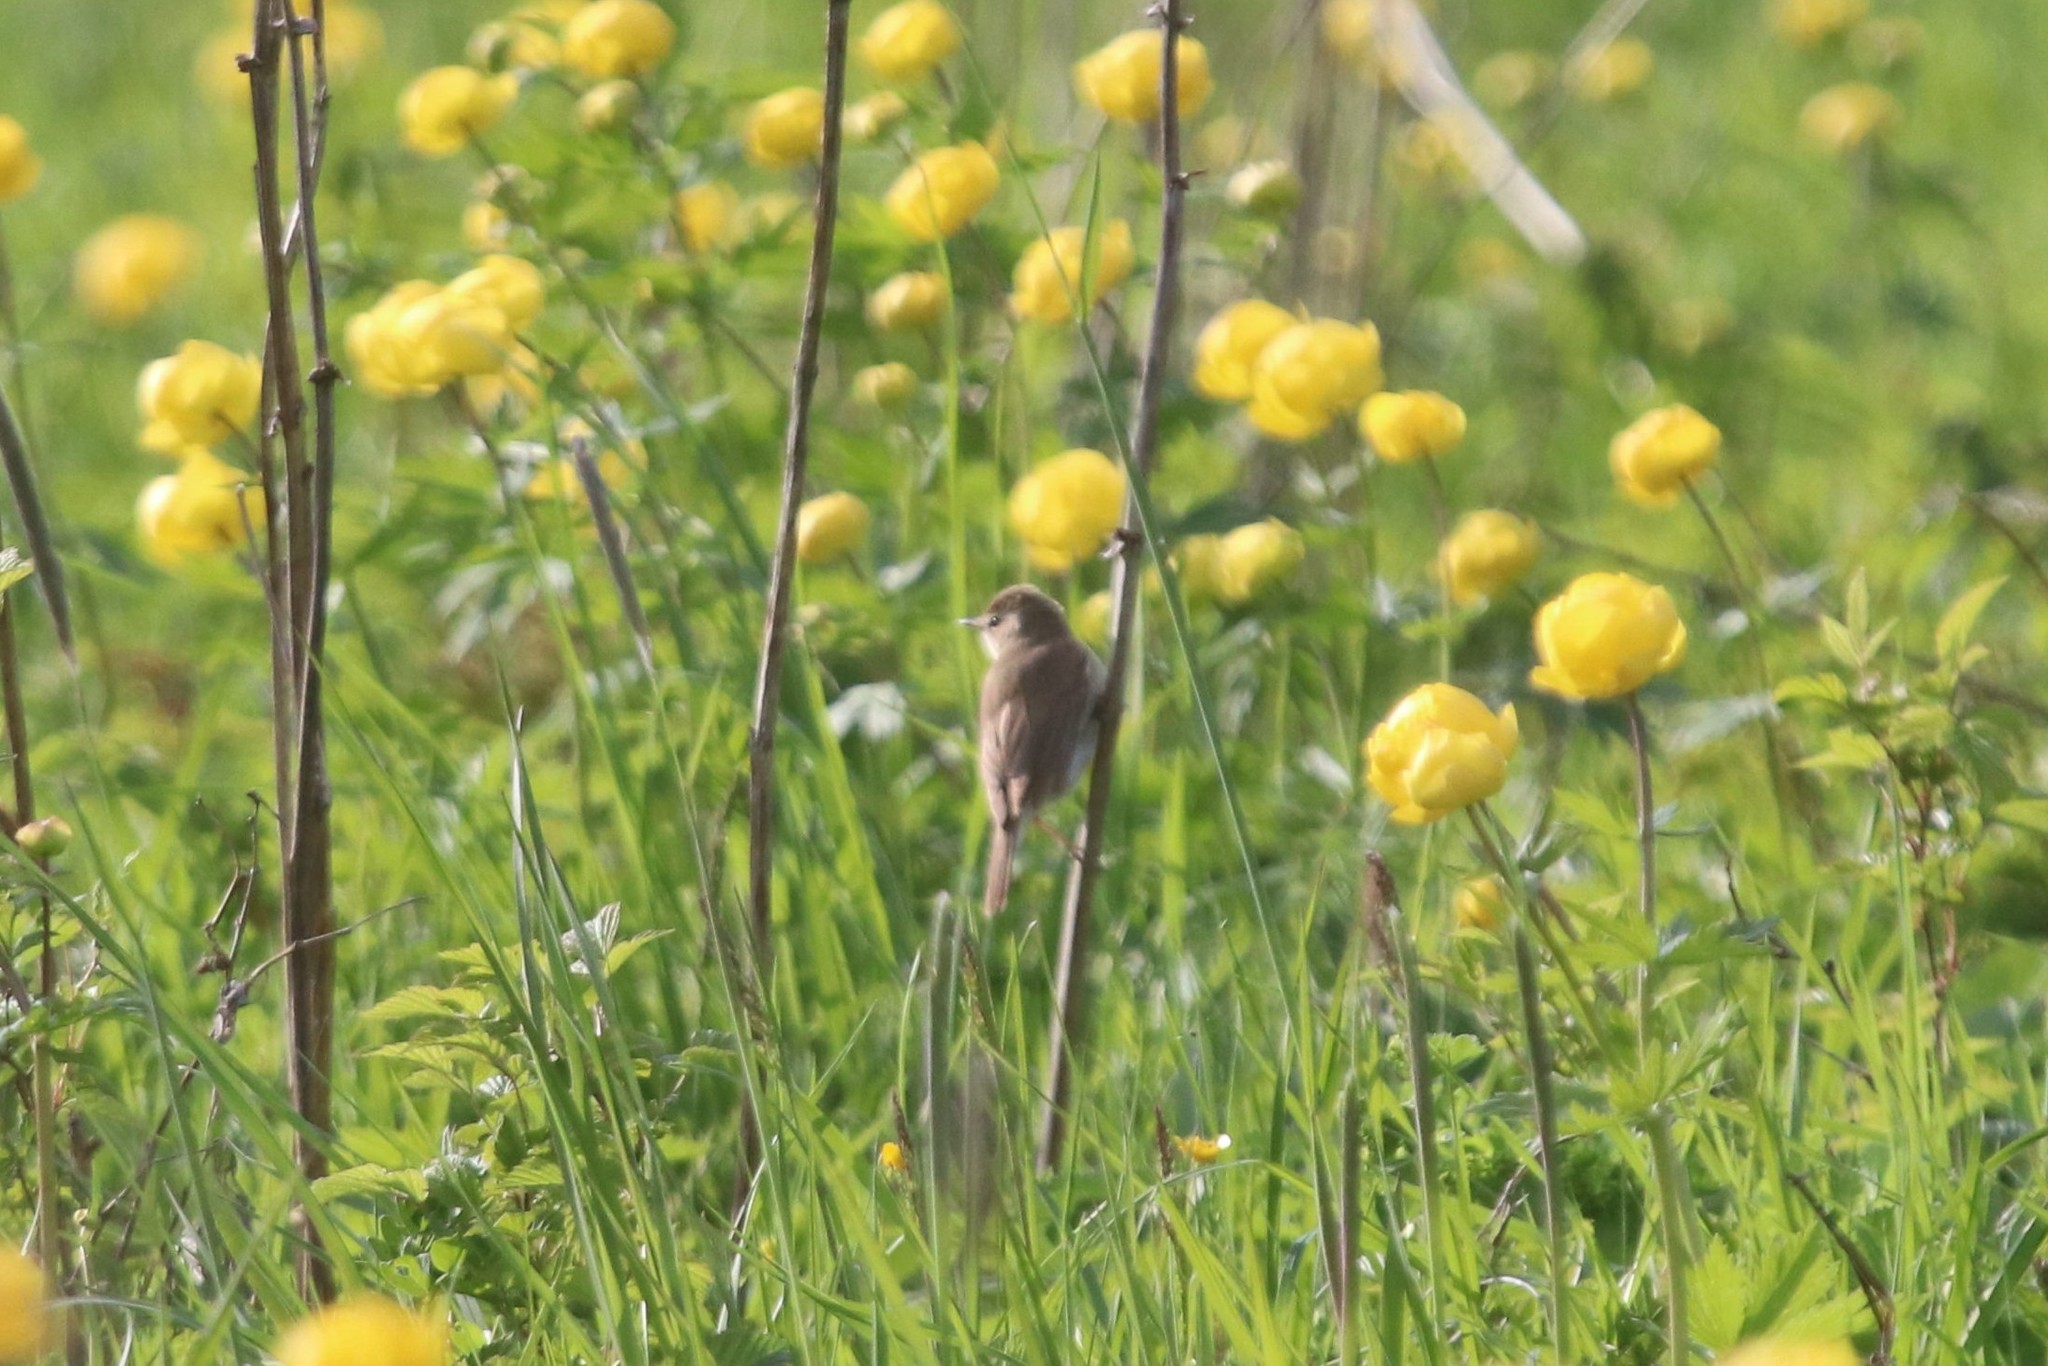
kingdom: Animalia
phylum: Chordata
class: Aves
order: Passeriformes
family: Acrocephalidae
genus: Iduna
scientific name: Iduna caligata
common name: Booted warbler
